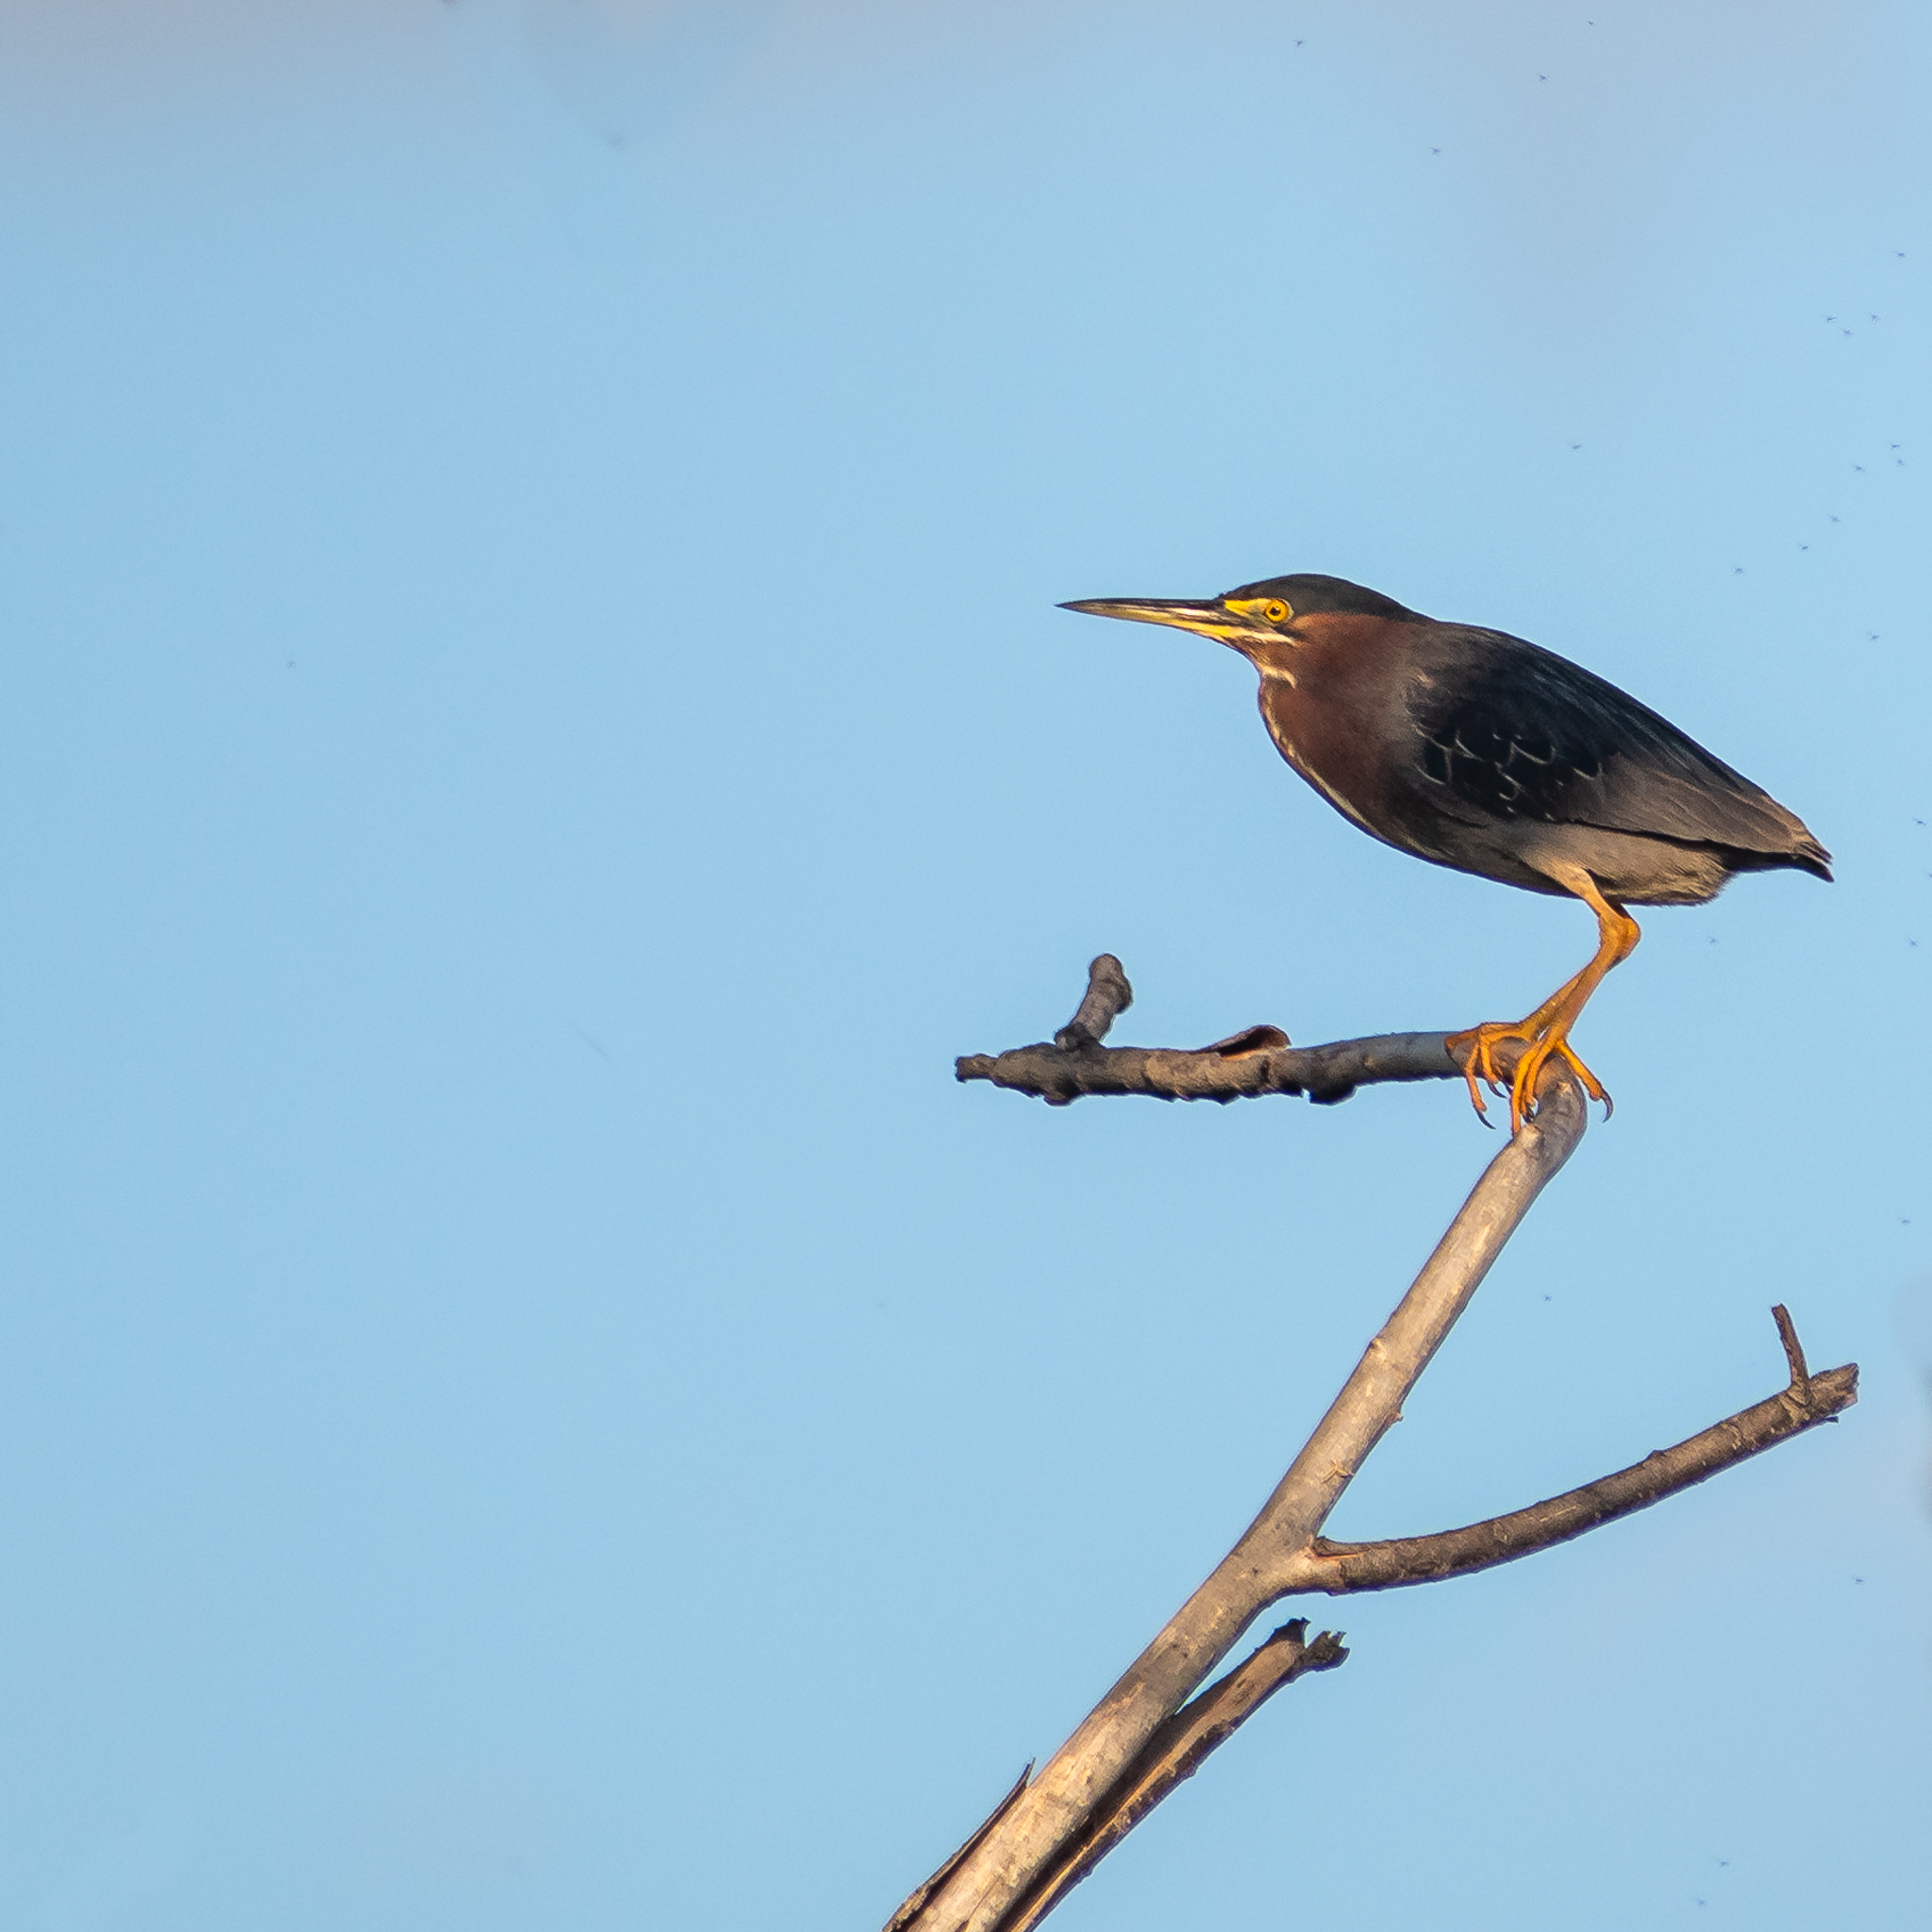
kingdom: Animalia
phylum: Chordata
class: Aves
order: Pelecaniformes
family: Ardeidae
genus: Butorides
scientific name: Butorides virescens
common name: Green heron
